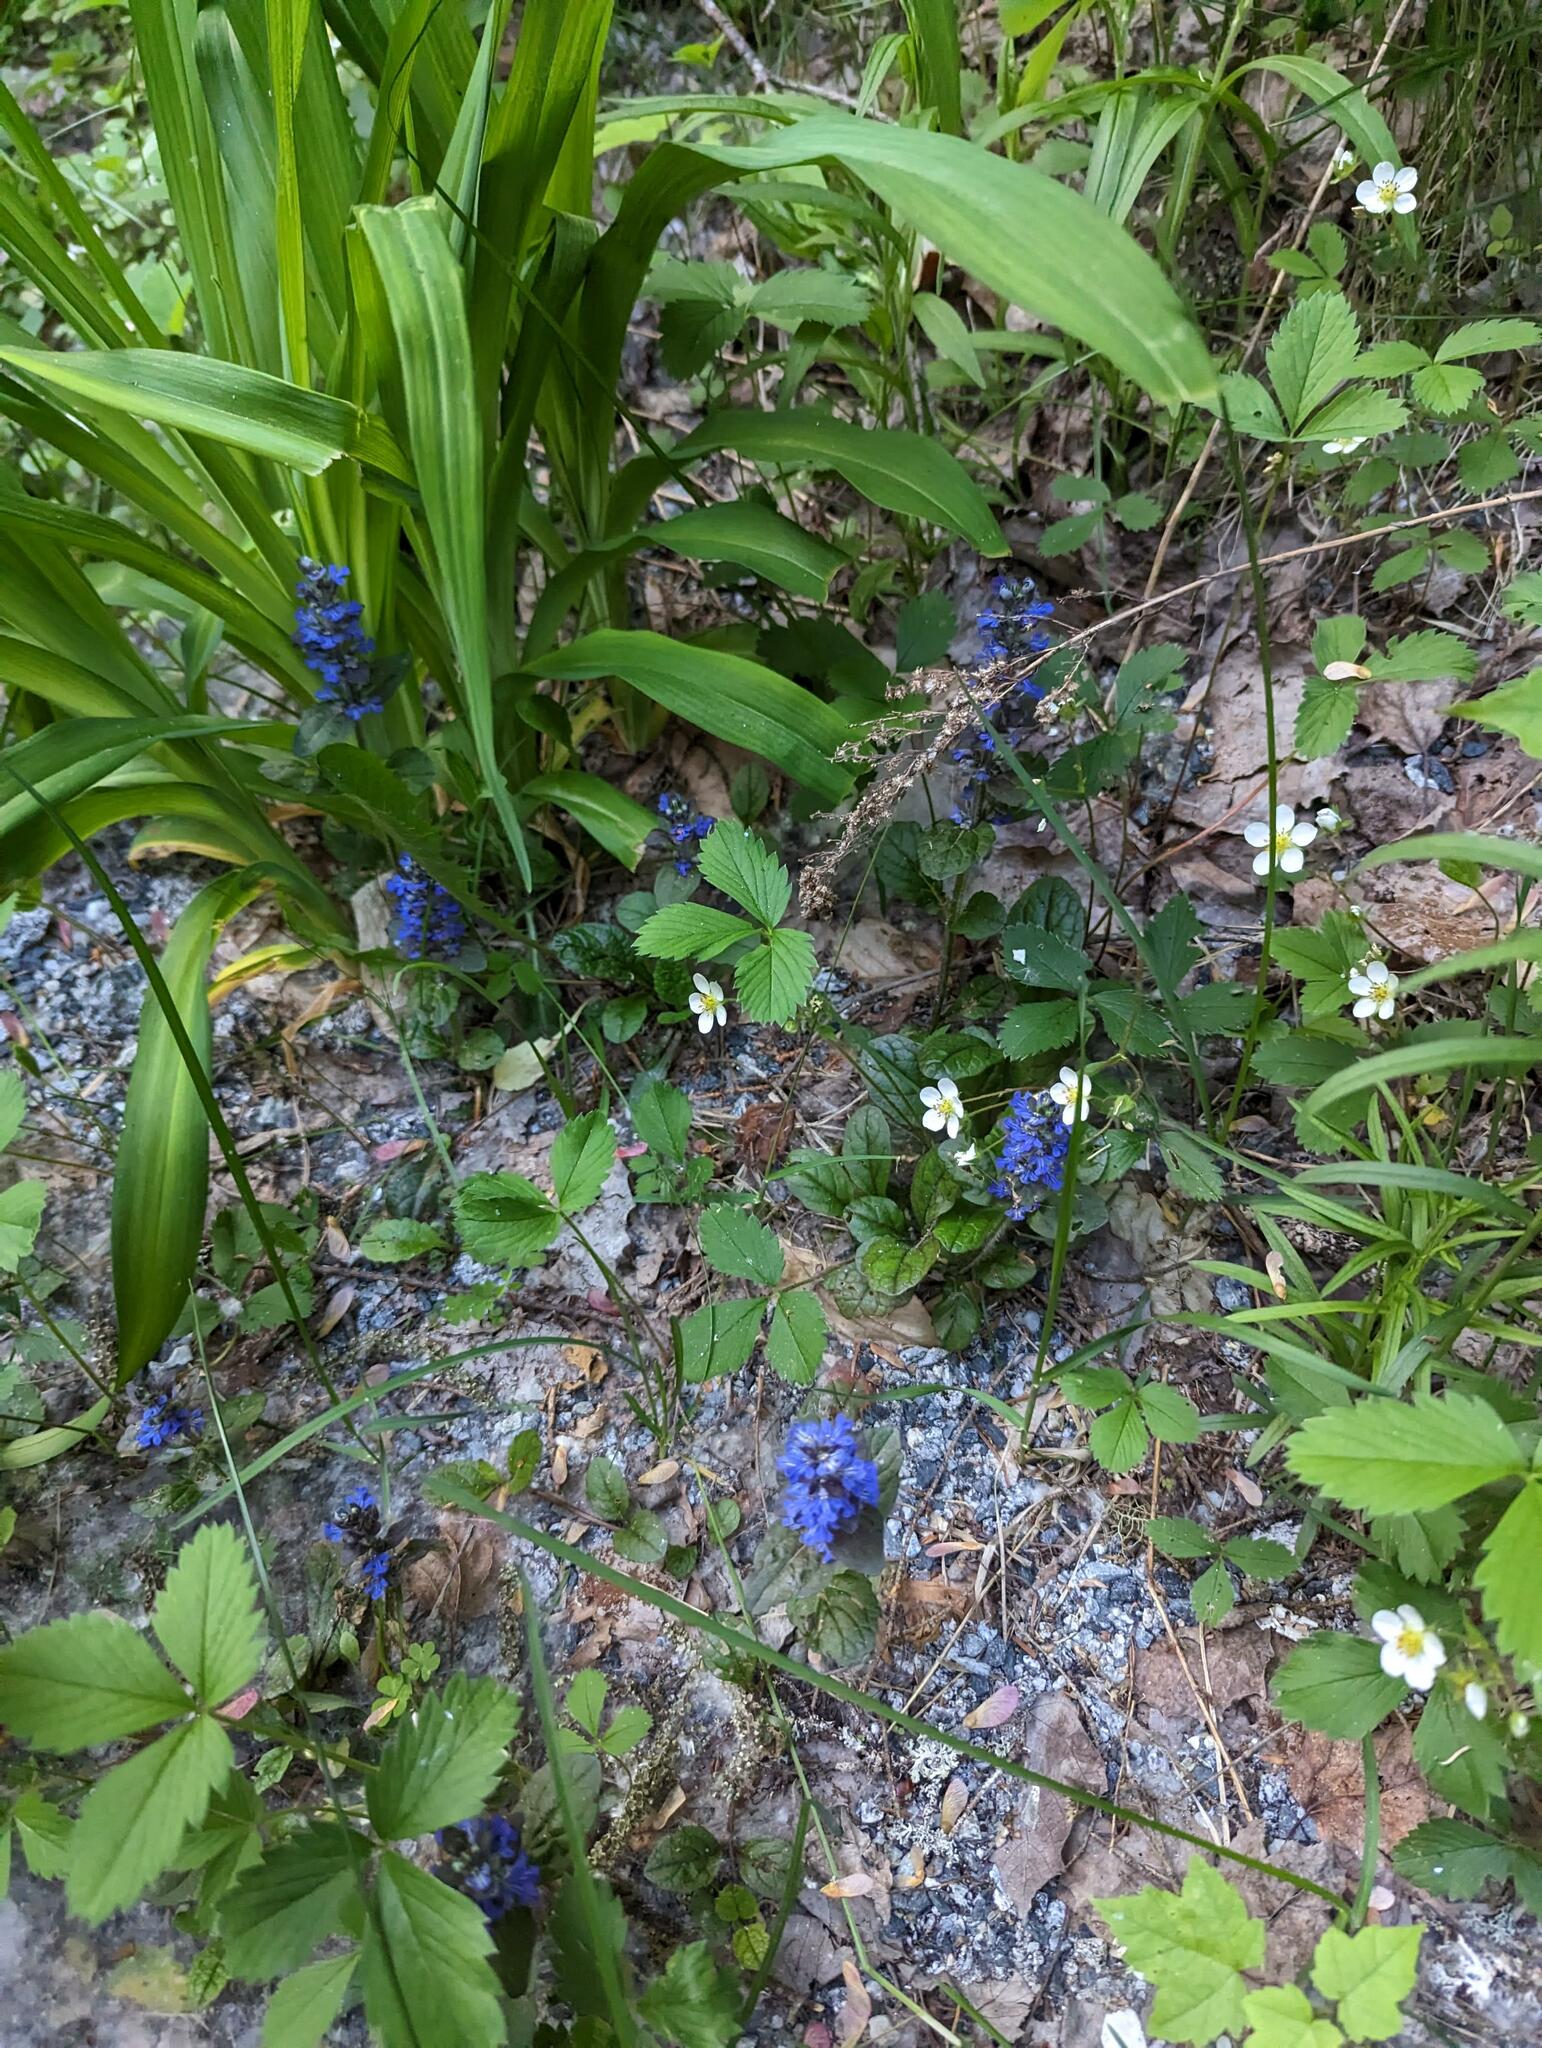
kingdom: Plantae
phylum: Tracheophyta
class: Magnoliopsida
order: Rosales
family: Rosaceae
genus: Fragaria
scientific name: Fragaria virginiana
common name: Thickleaved wild strawberry
